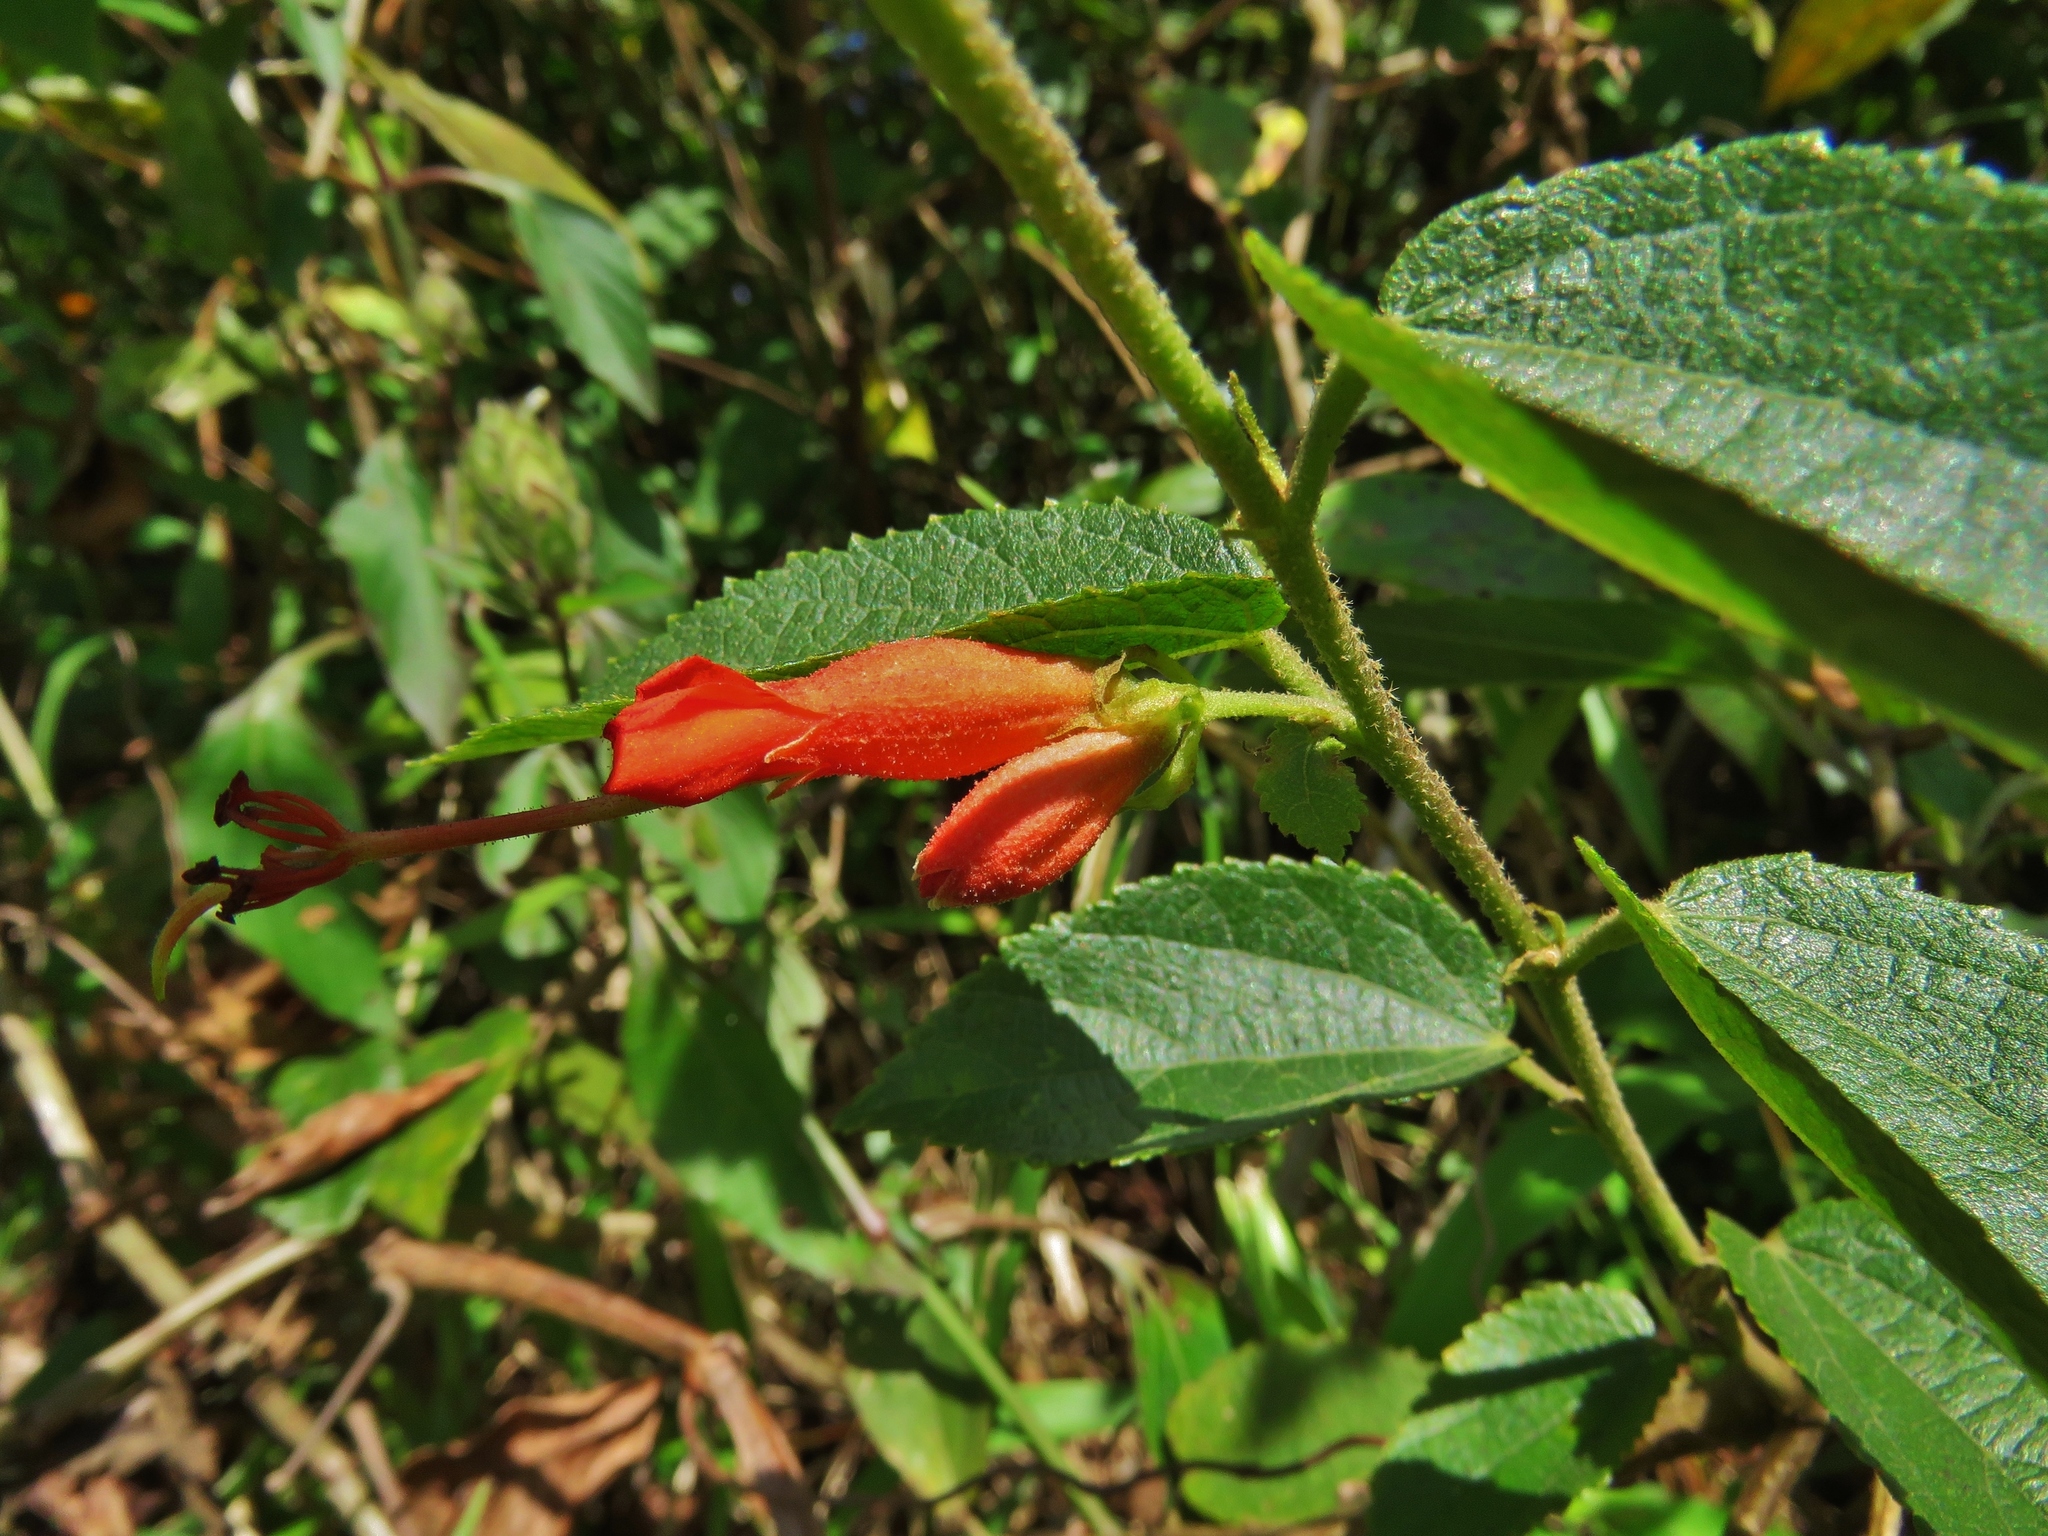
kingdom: Plantae
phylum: Tracheophyta
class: Magnoliopsida
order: Malvales
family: Malvaceae
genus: Helicteres
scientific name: Helicteres guazumifolia
